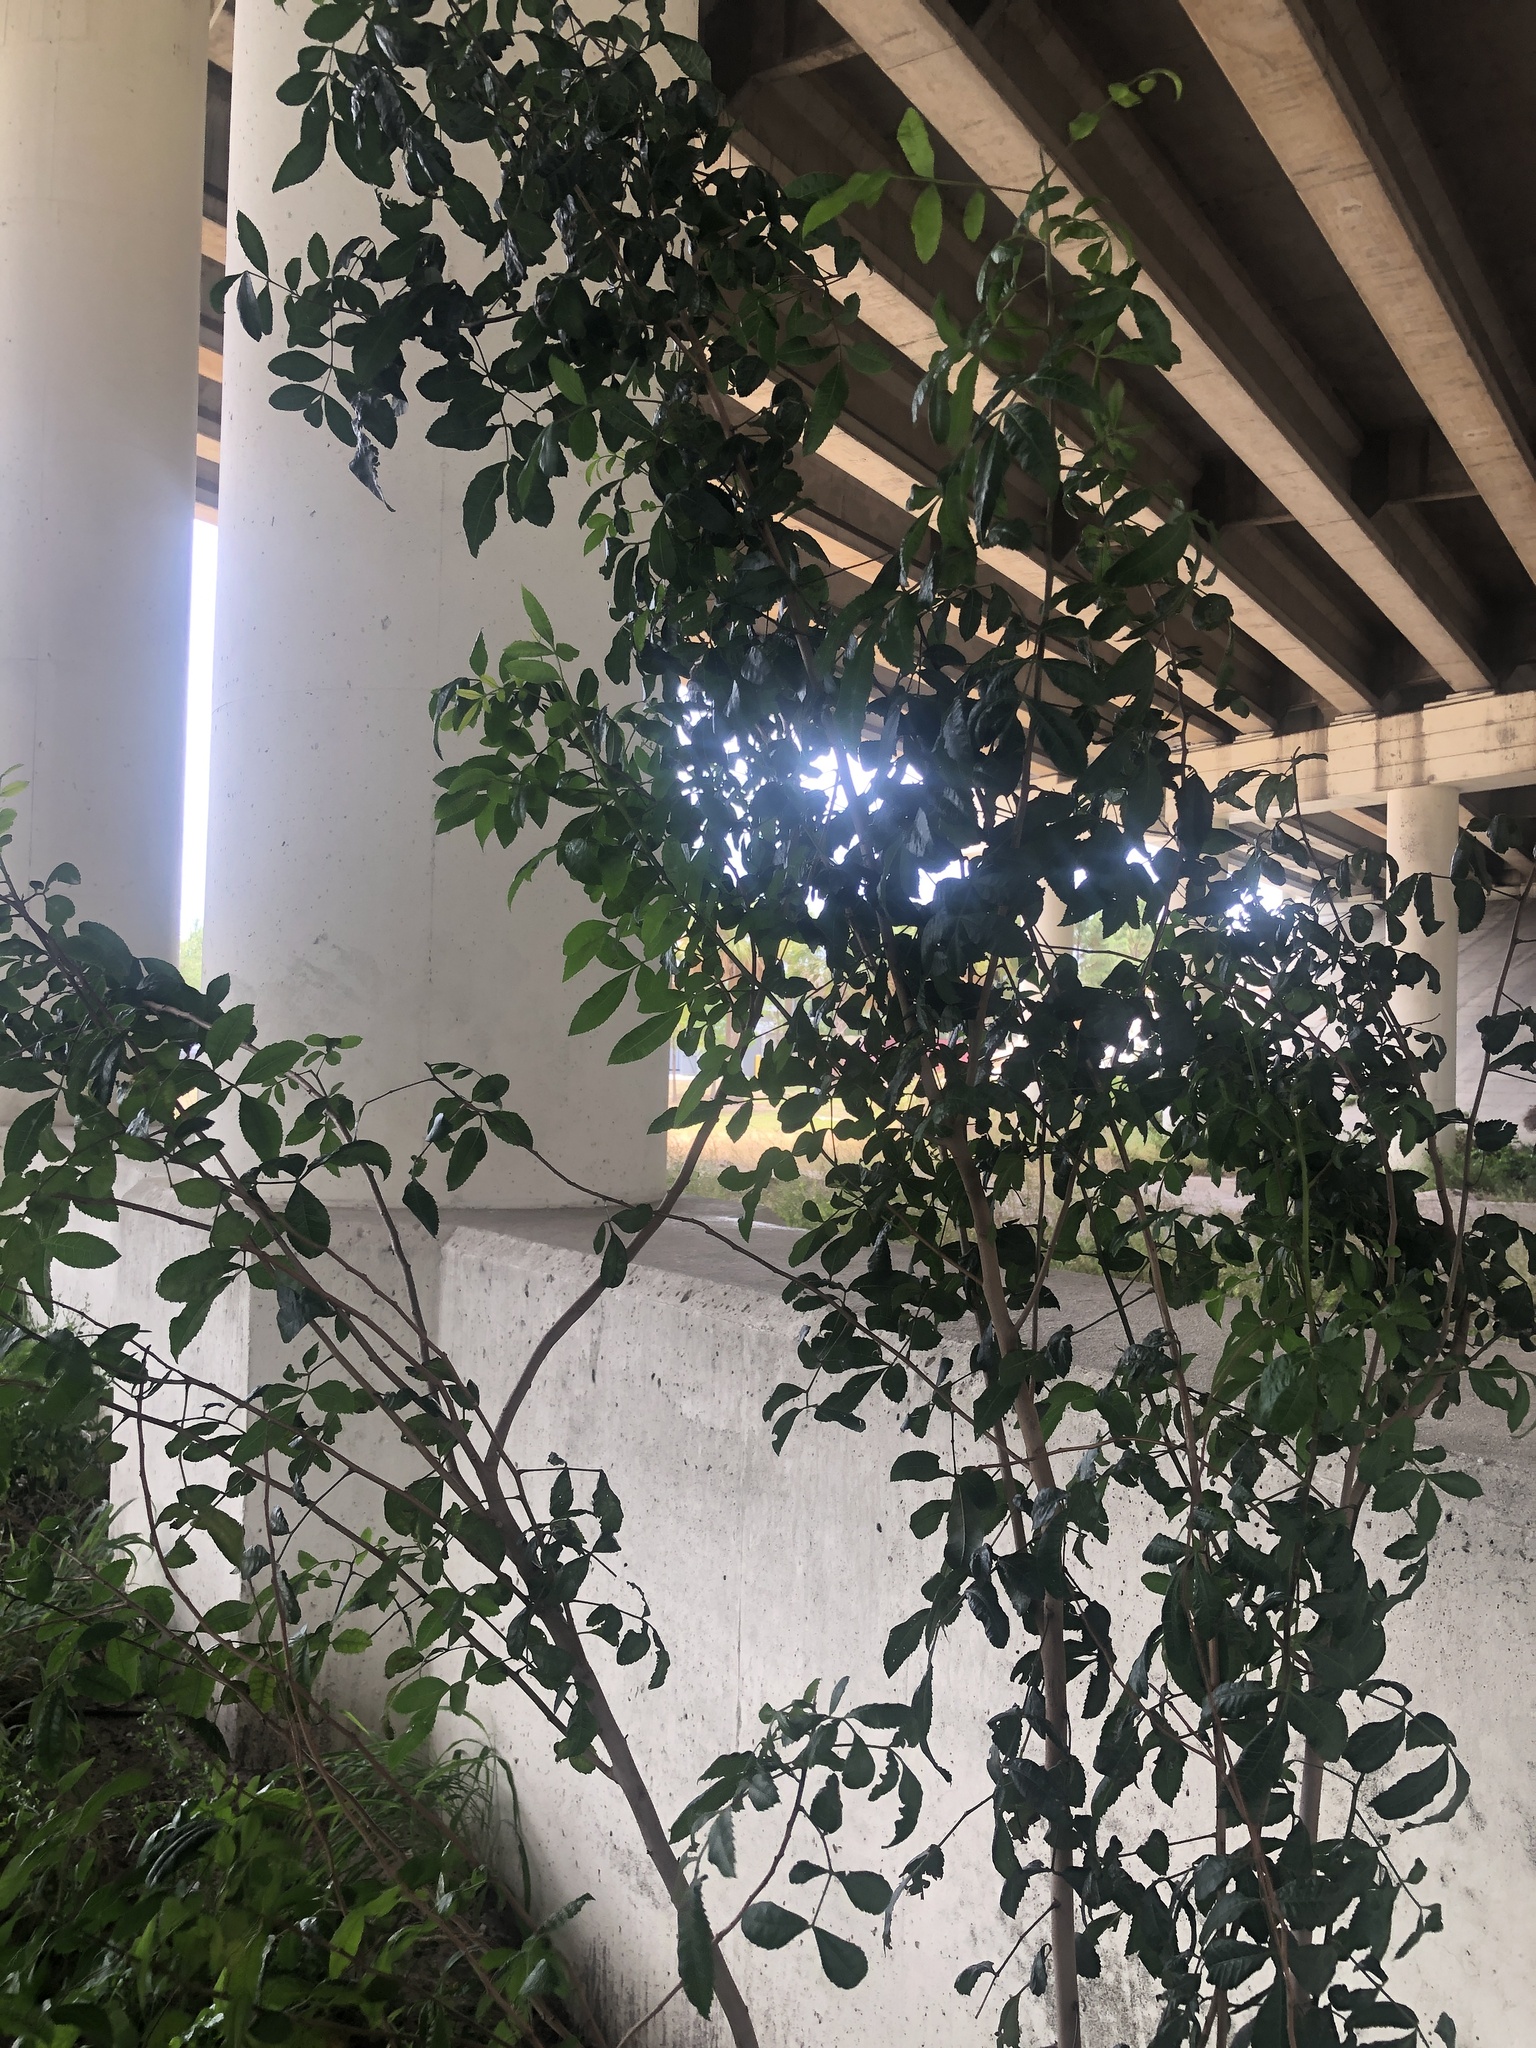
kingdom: Plantae
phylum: Tracheophyta
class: Magnoliopsida
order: Sapindales
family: Anacardiaceae
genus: Schinus
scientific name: Schinus terebinthifolia
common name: Brazilian peppertree
